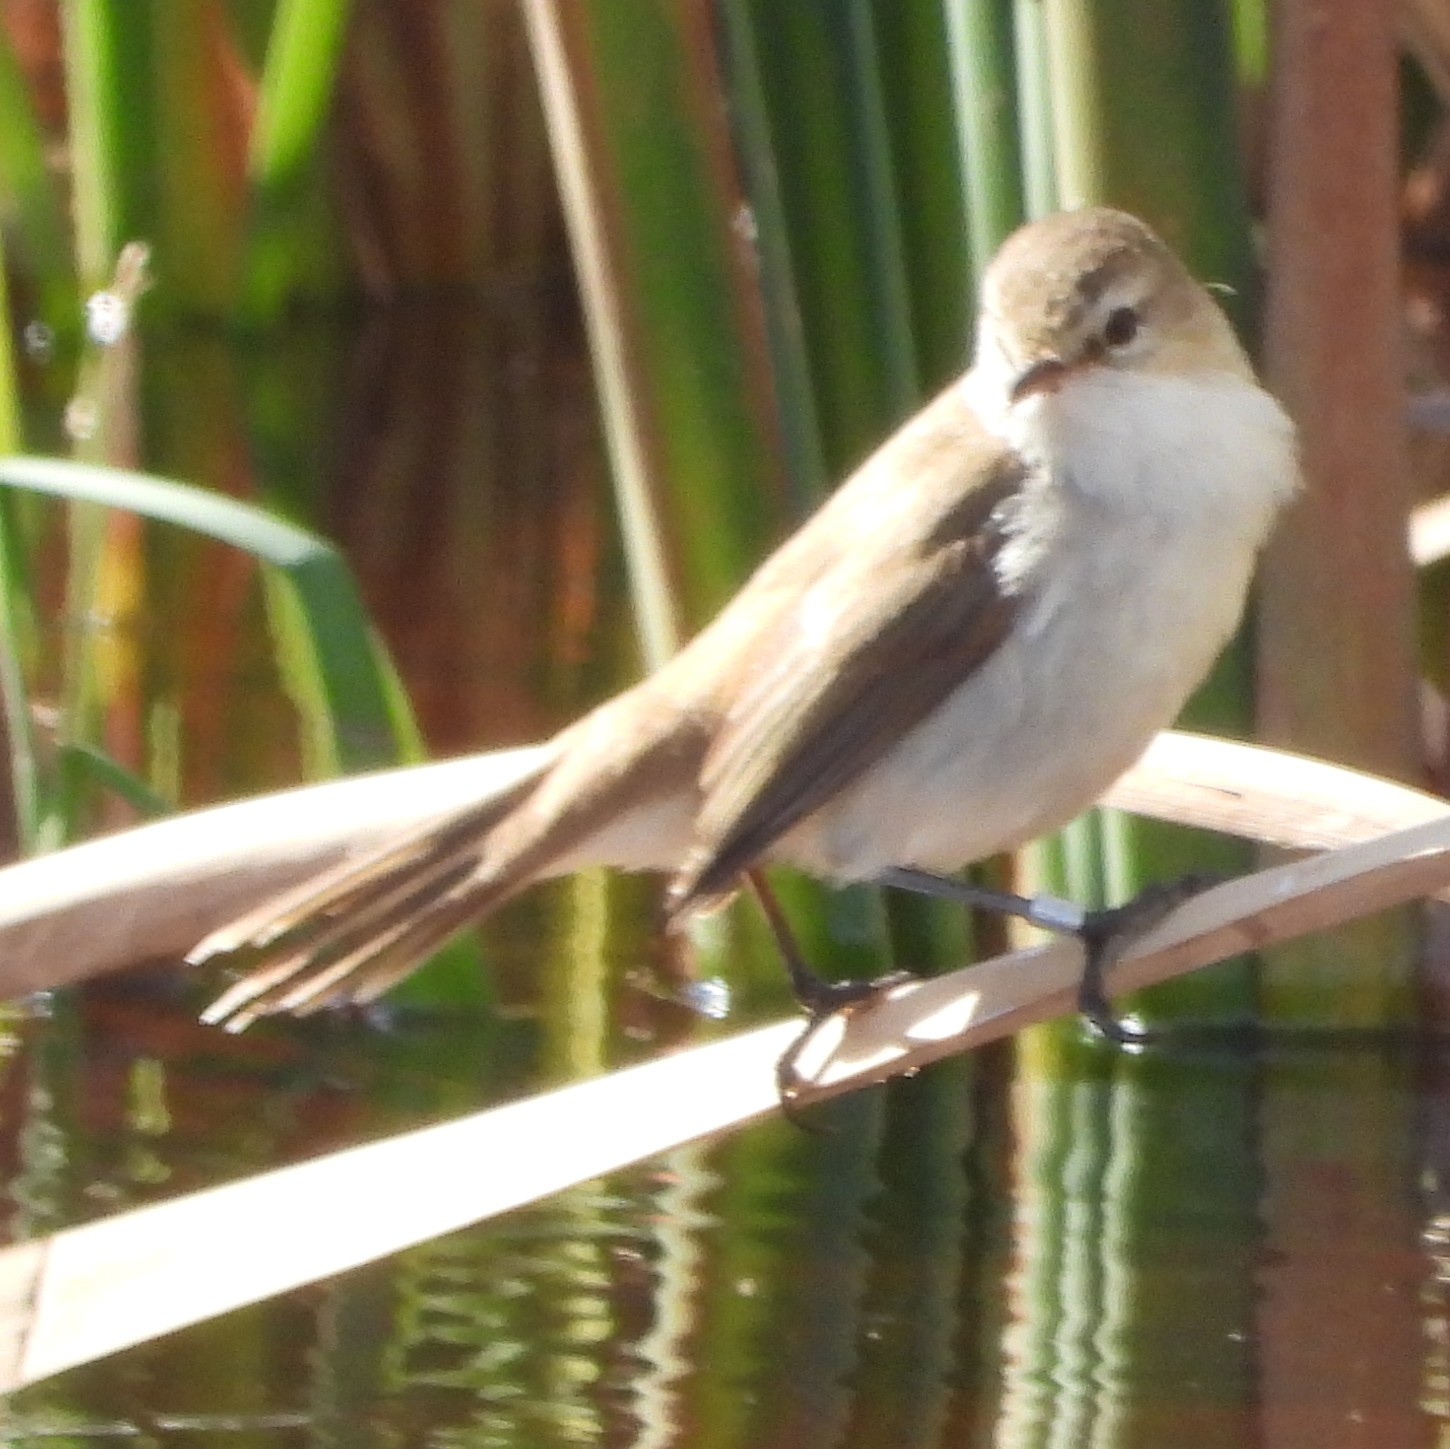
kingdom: Animalia
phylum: Chordata
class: Aves
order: Passeriformes
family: Acrocephalidae
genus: Acrocephalus
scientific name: Acrocephalus gracilirostris
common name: Lesser swamp warbler
